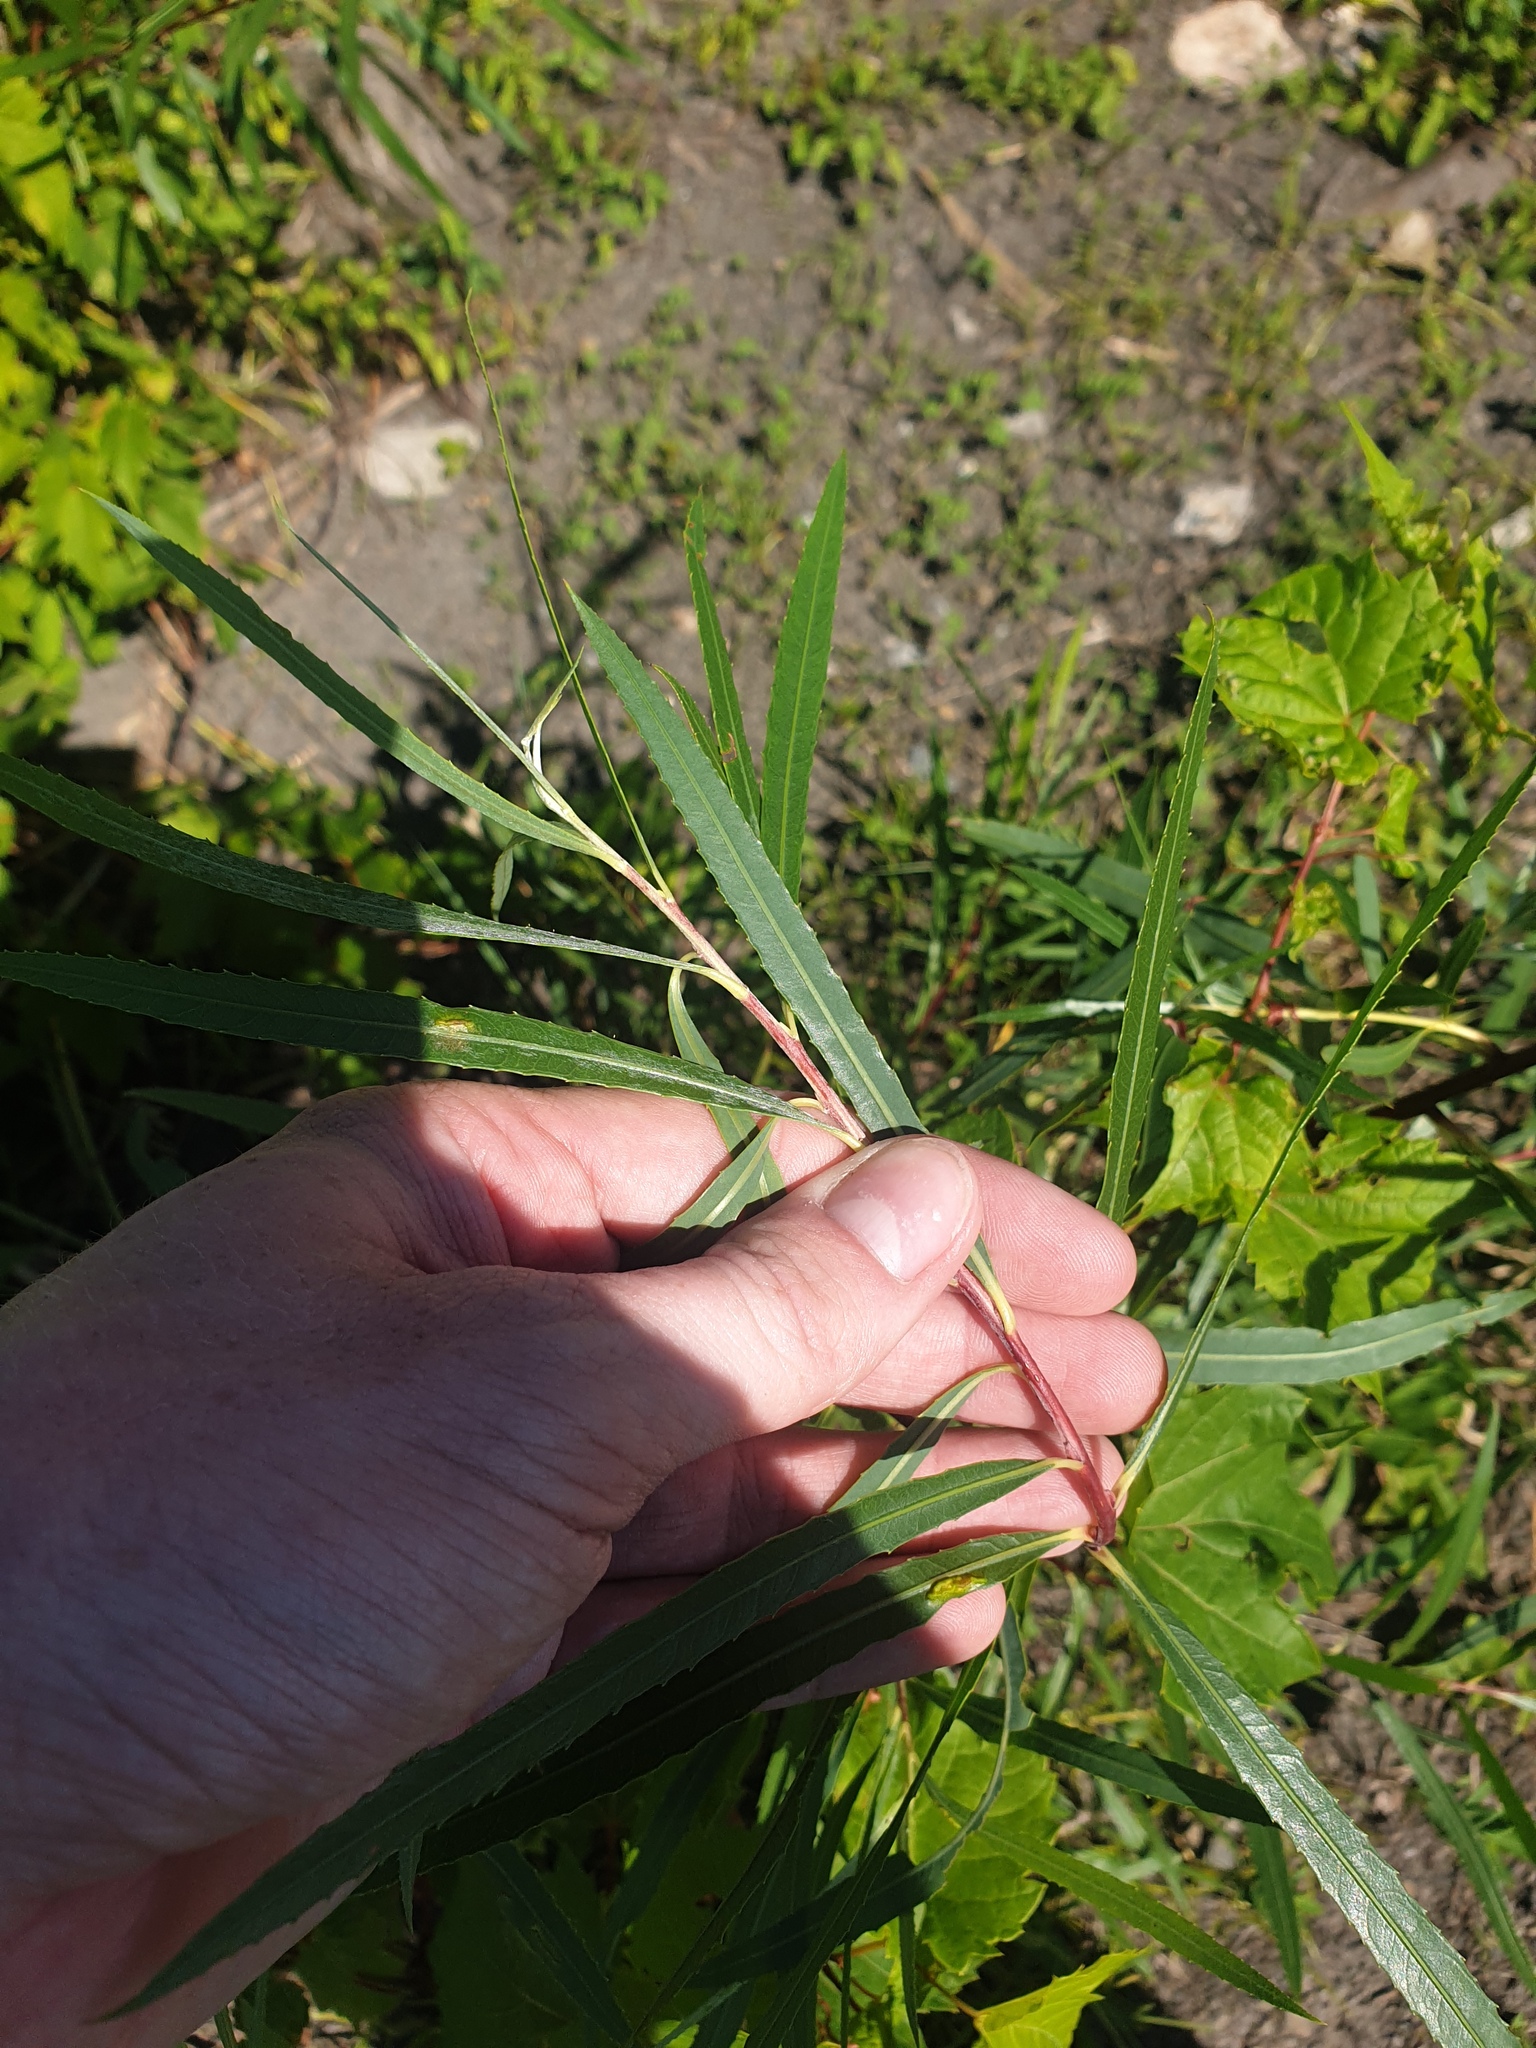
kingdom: Plantae
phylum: Tracheophyta
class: Magnoliopsida
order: Malpighiales
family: Salicaceae
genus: Salix
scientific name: Salix interior
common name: Sandbar willow
